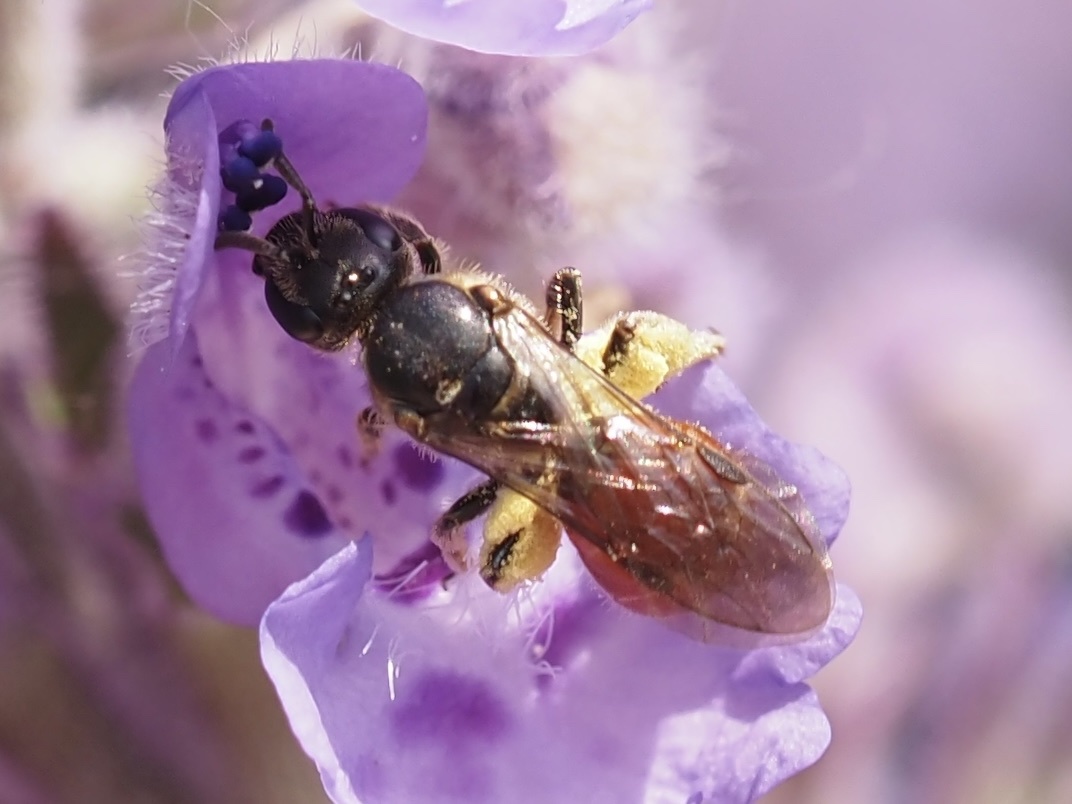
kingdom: Animalia
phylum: Arthropoda
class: Insecta
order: Hymenoptera
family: Halictidae
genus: Lasioglossum
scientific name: Lasioglossum ovaliceps
